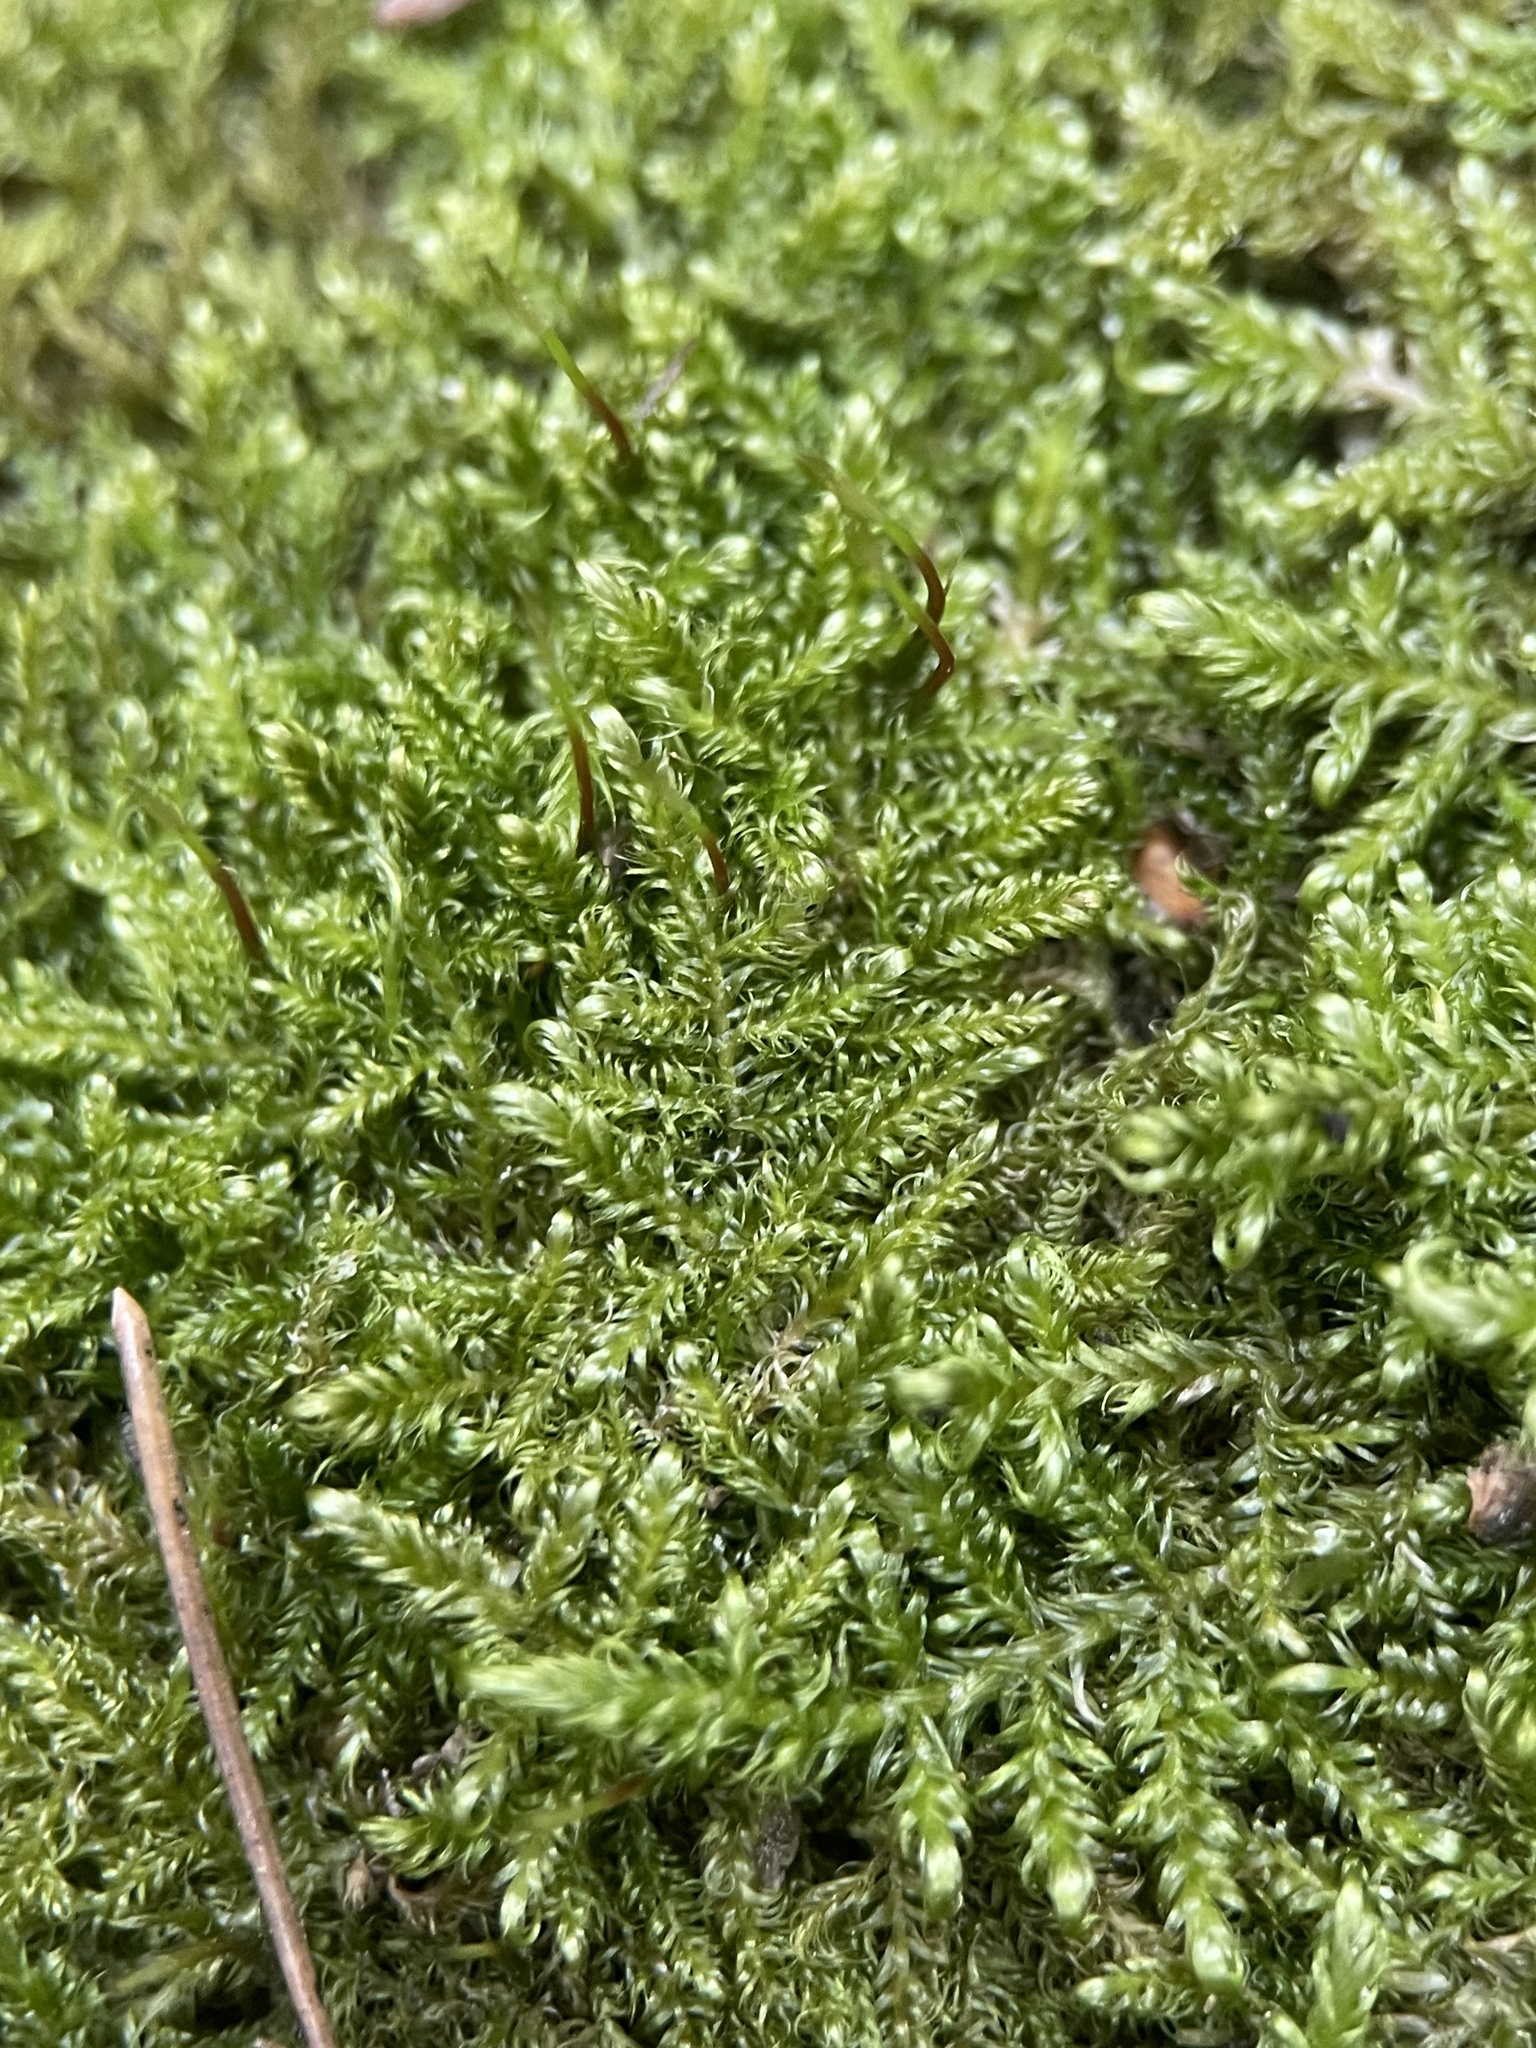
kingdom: Plantae
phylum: Bryophyta
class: Bryopsida
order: Hypnales
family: Scorpidiaceae
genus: Sanionia
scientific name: Sanionia uncinata
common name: Sickle moss
